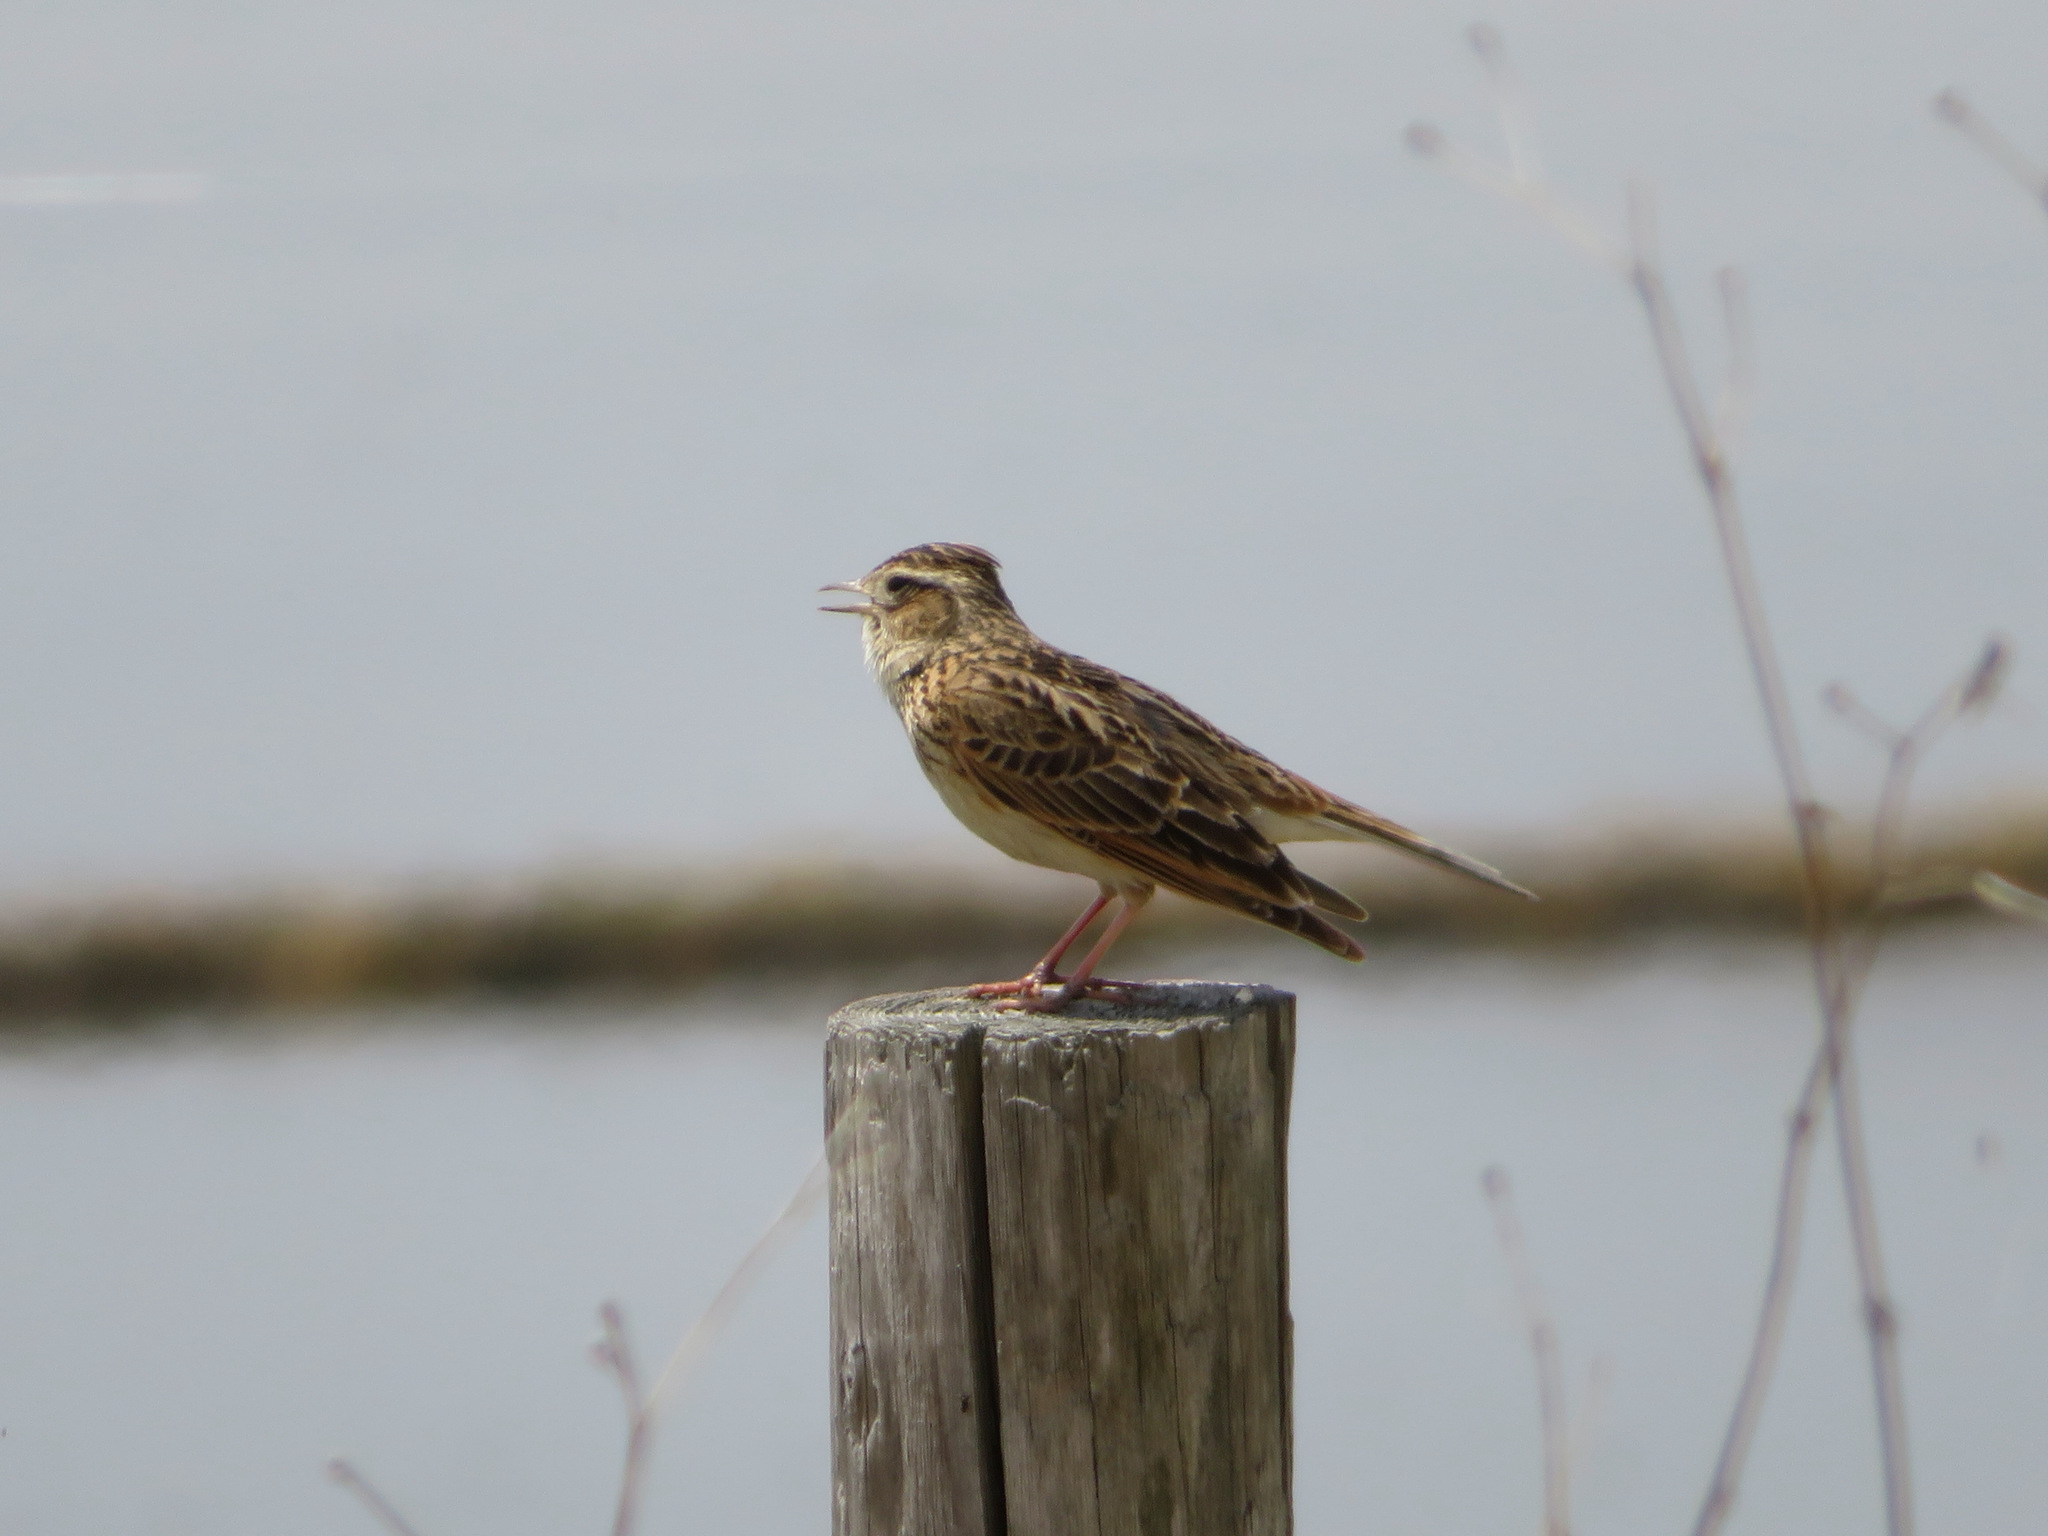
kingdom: Animalia
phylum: Chordata
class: Aves
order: Passeriformes
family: Alaudidae
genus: Alauda
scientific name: Alauda arvensis
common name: Eurasian skylark
